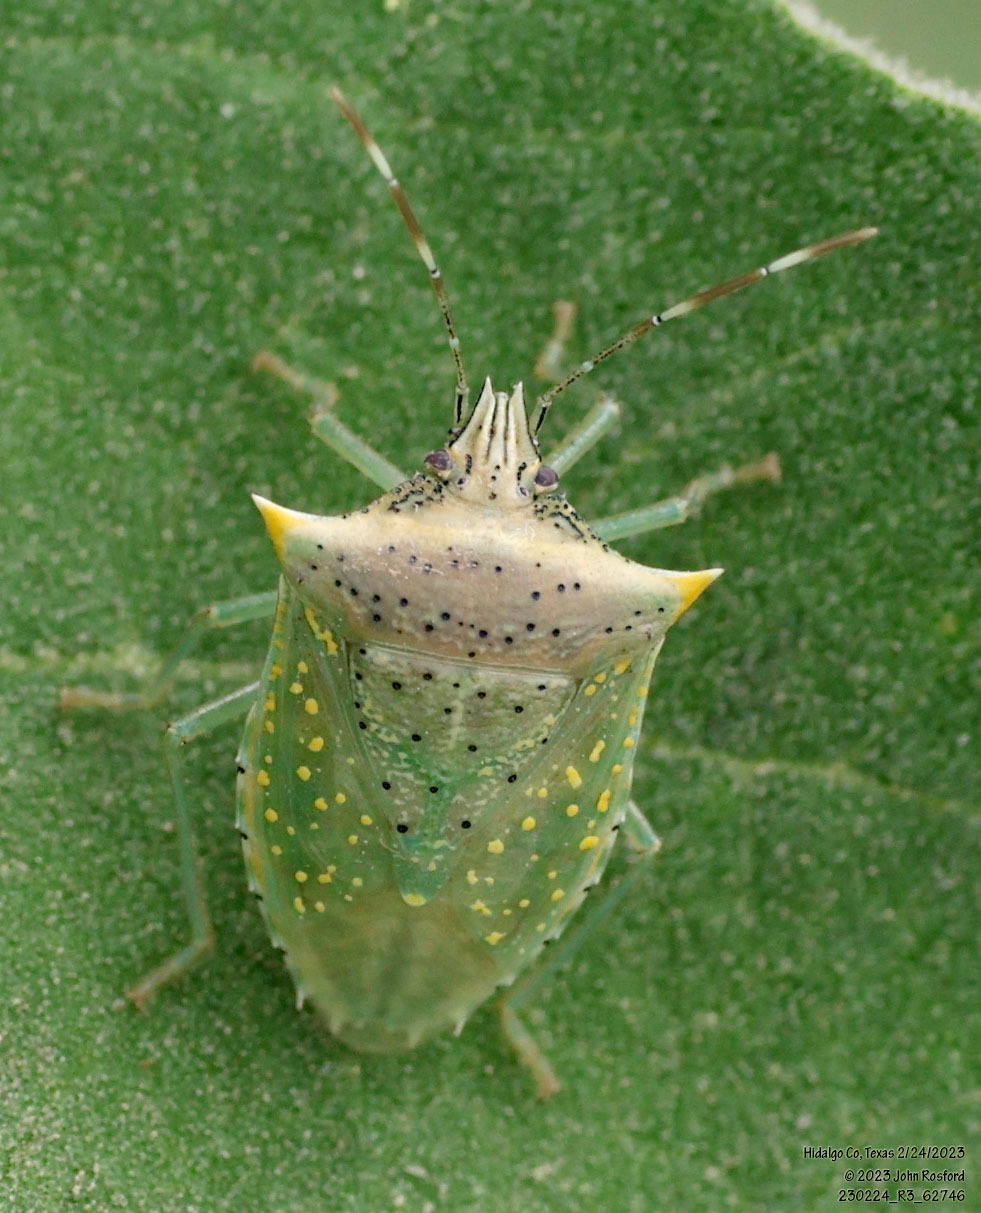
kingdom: Animalia
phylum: Arthropoda
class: Insecta
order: Hemiptera
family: Pentatomidae
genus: Arvelius
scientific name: Arvelius albopunctatus
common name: Tomato stink bug
